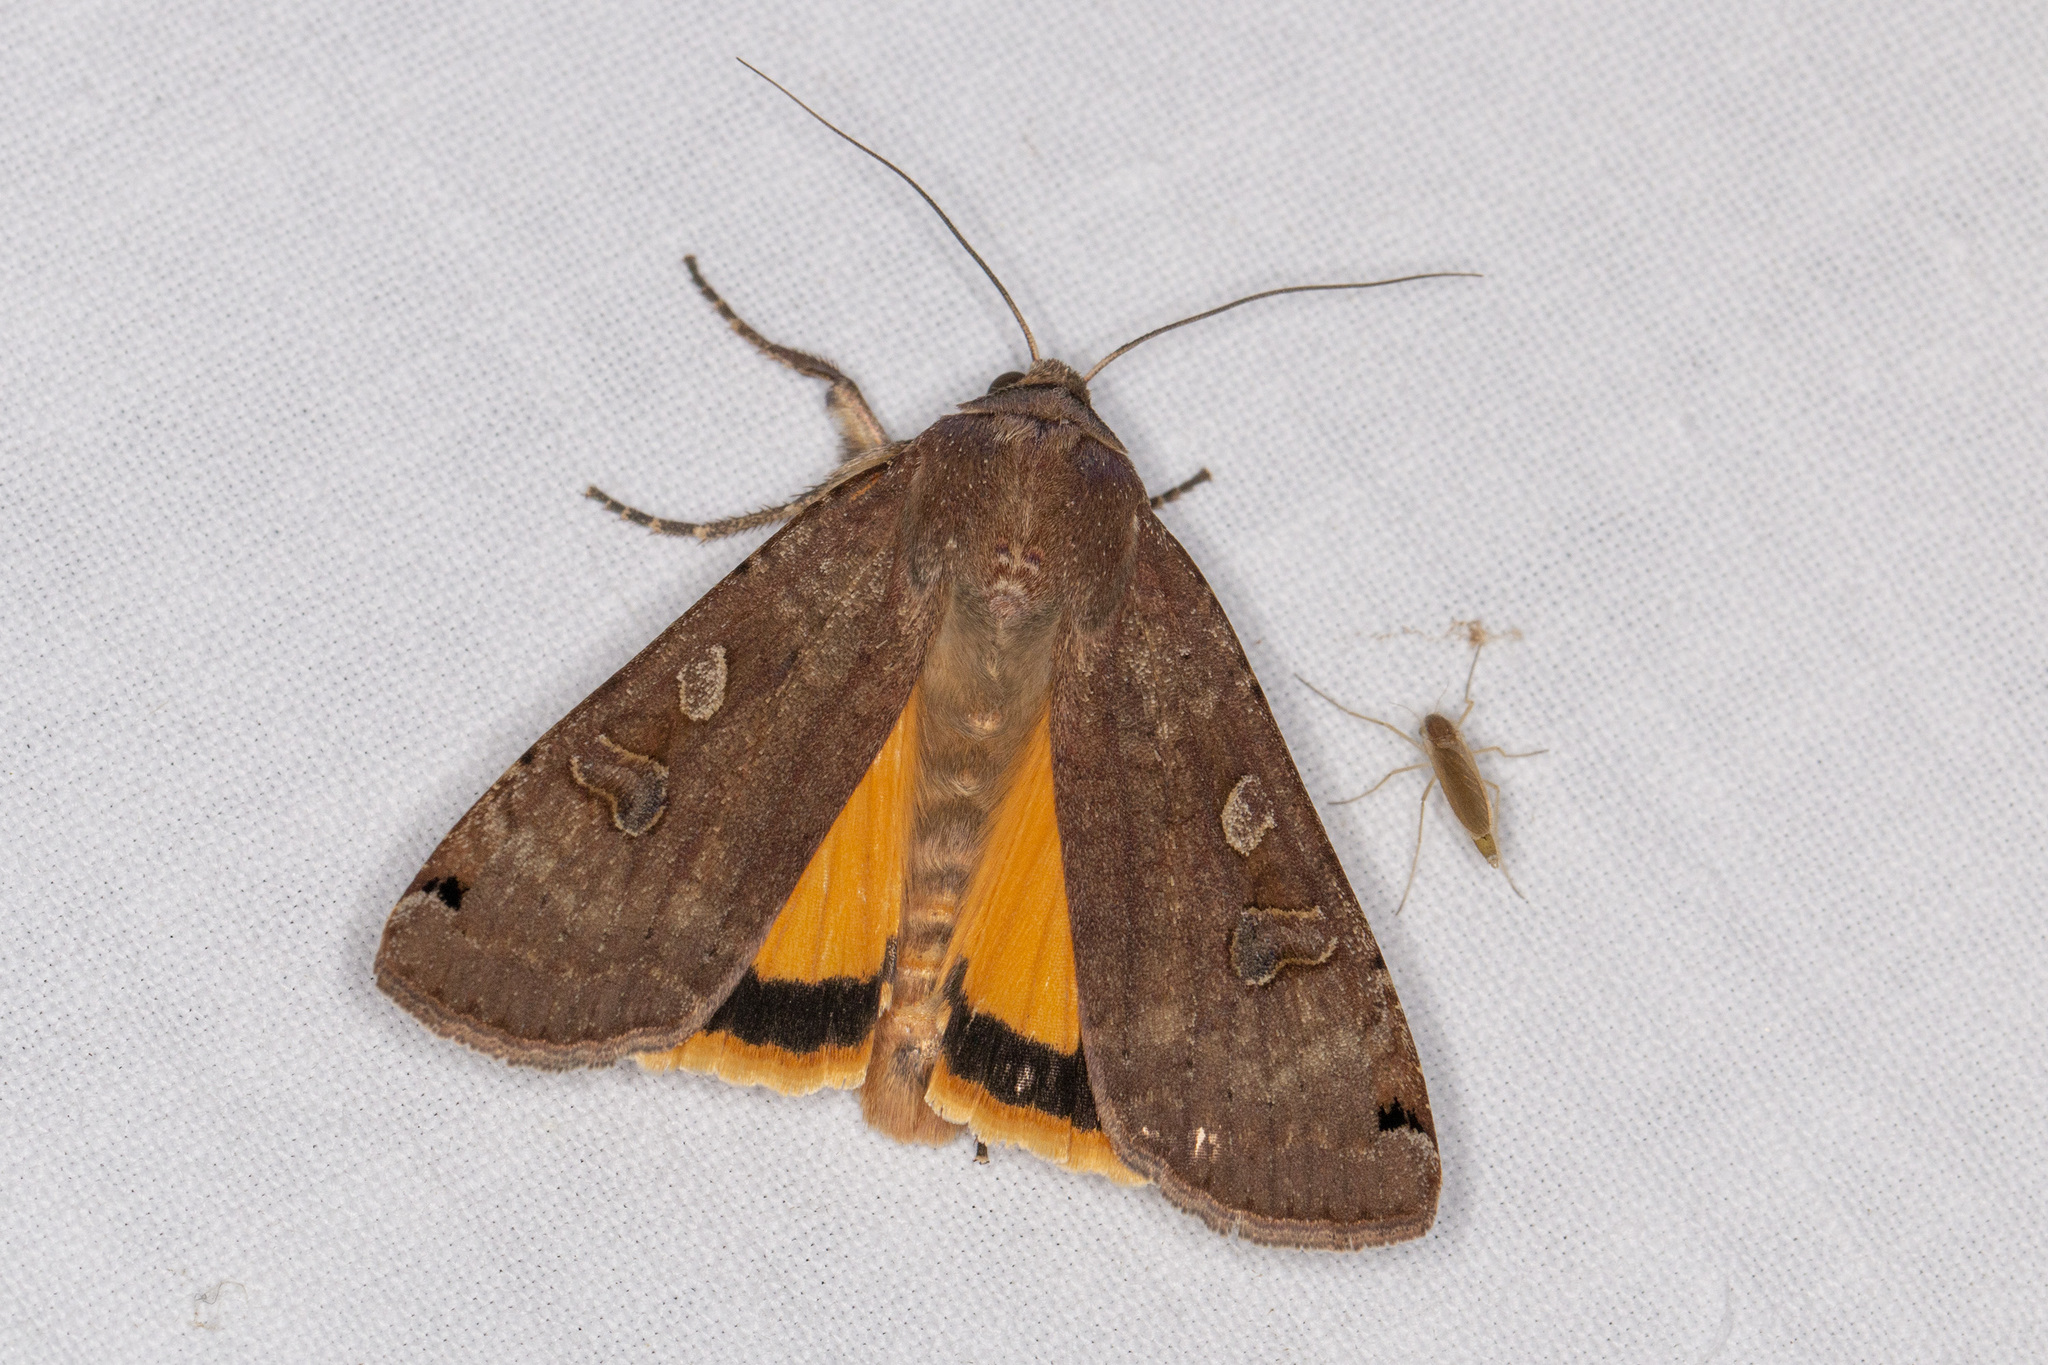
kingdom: Animalia
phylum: Arthropoda
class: Insecta
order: Lepidoptera
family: Noctuidae
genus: Noctua
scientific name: Noctua pronuba
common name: Large yellow underwing
